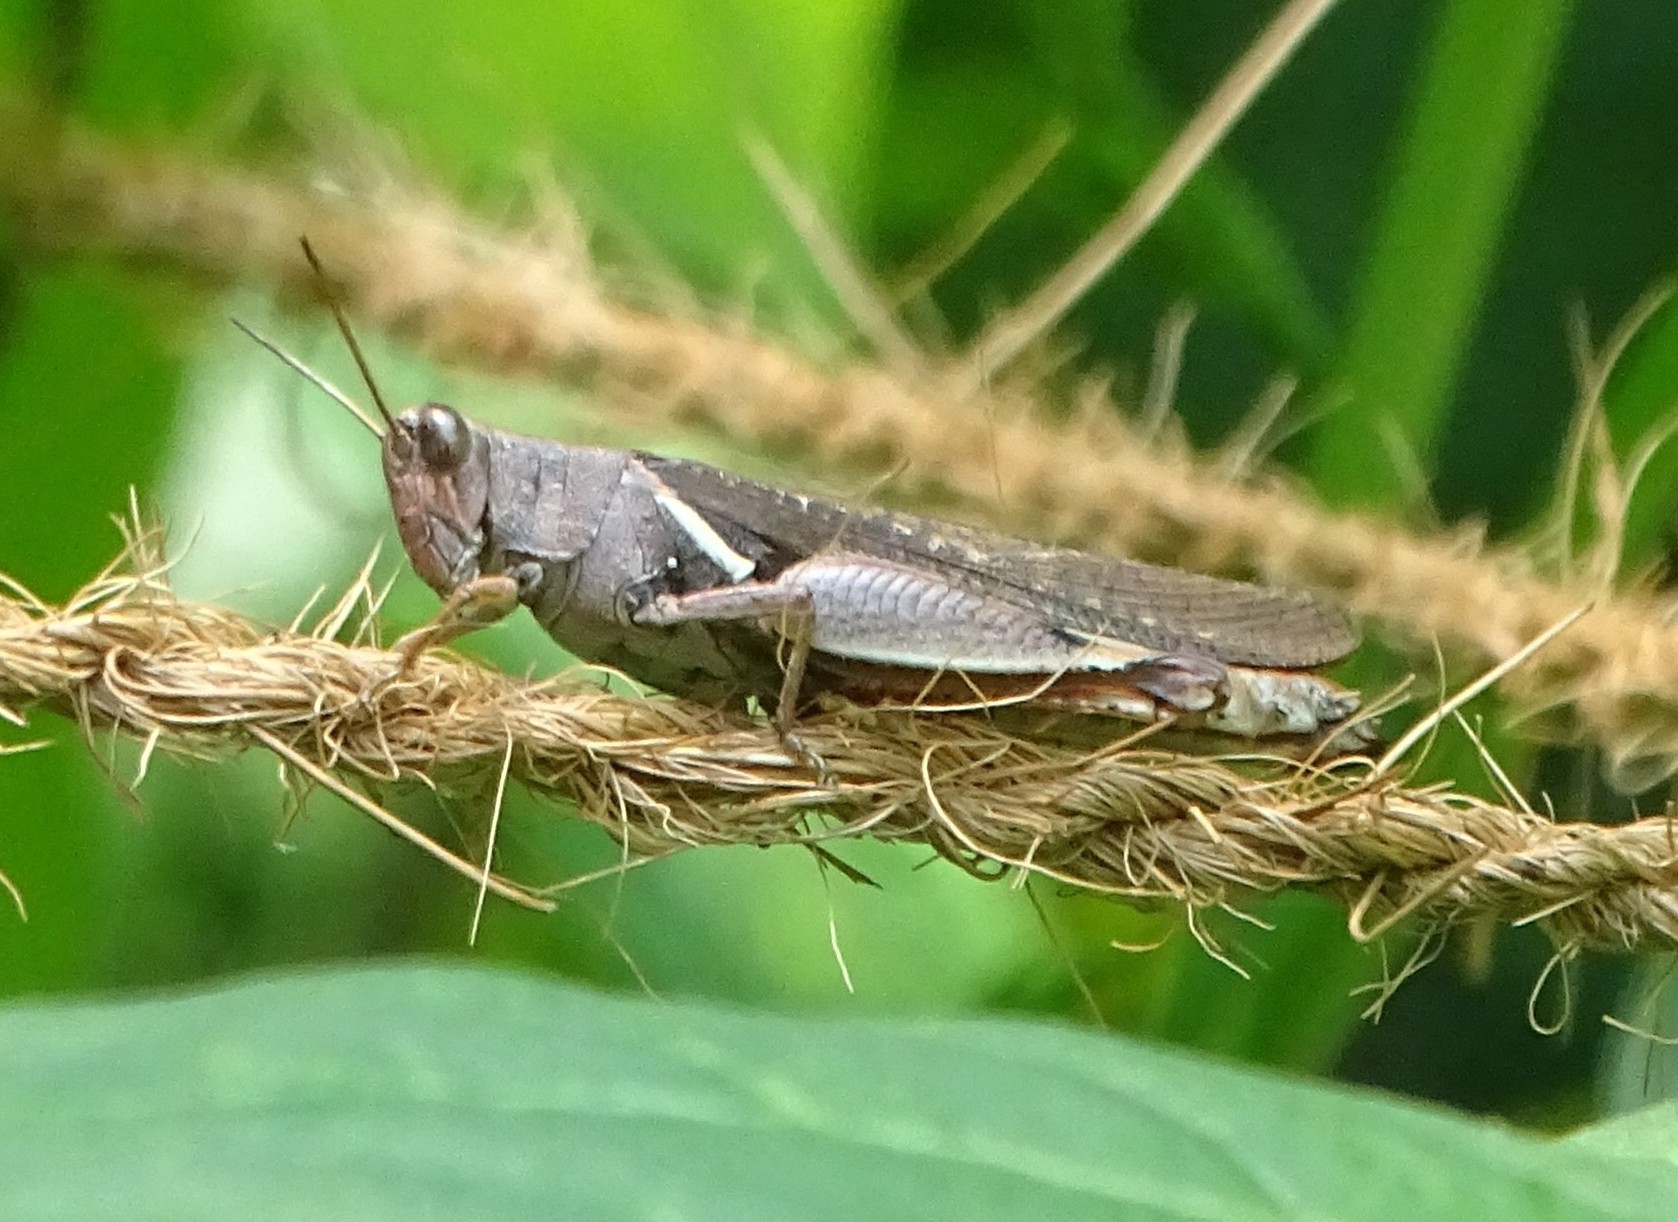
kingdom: Animalia
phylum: Arthropoda
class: Insecta
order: Orthoptera
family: Acrididae
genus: Diabolocatantops
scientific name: Diabolocatantops innotabilis
